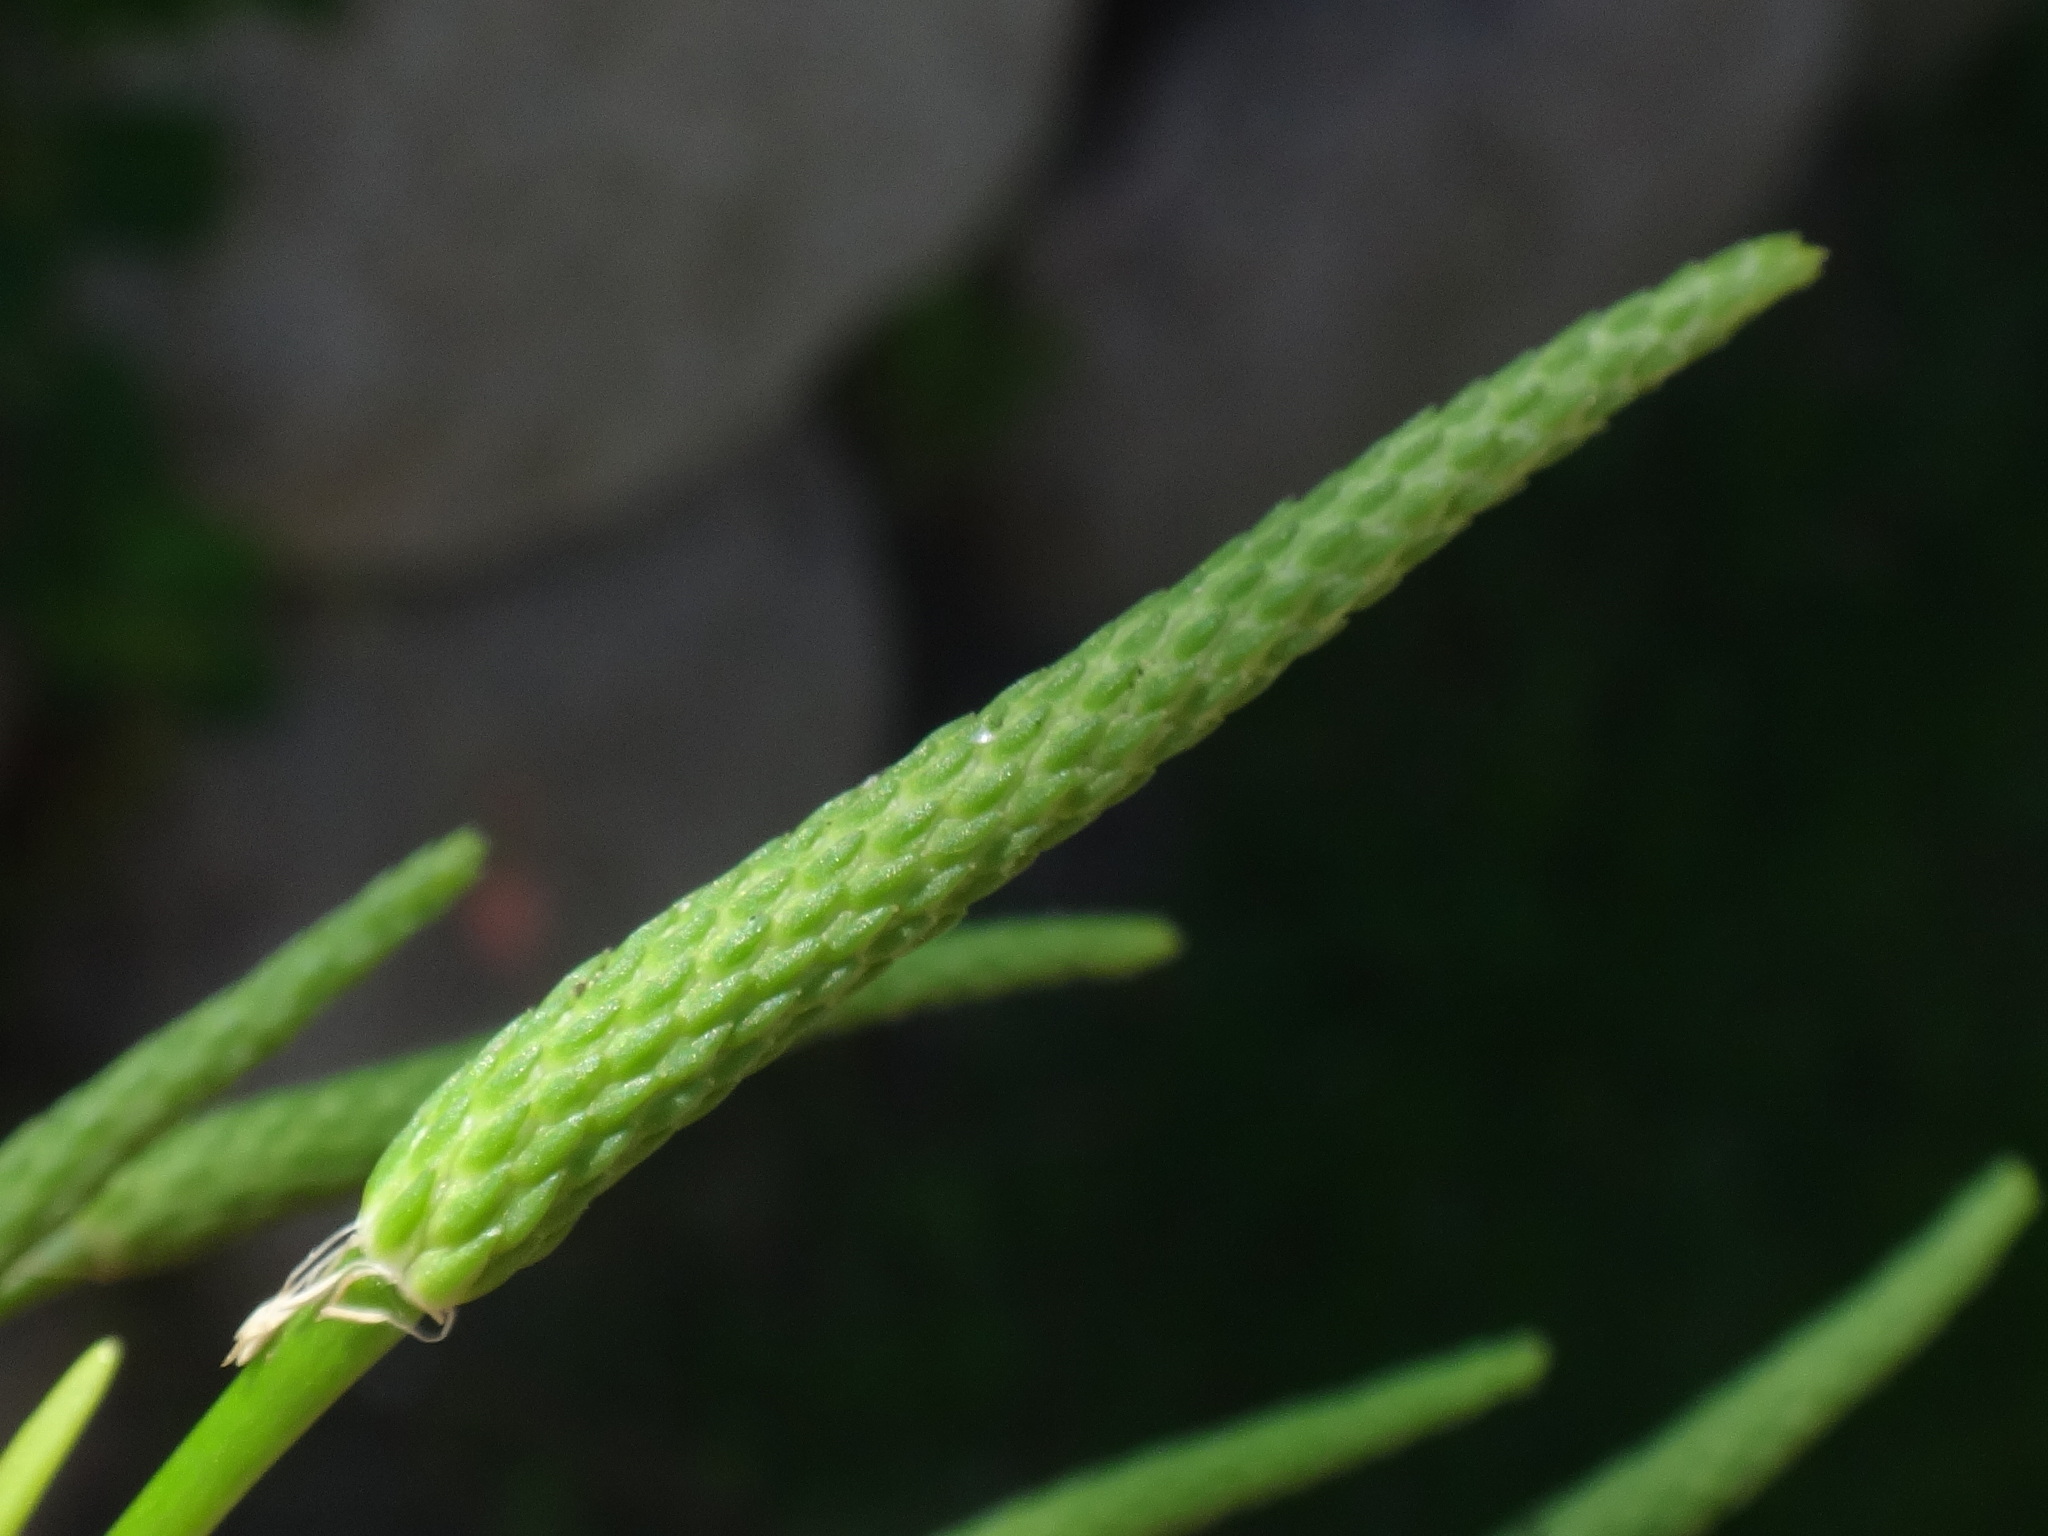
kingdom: Plantae
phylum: Tracheophyta
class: Magnoliopsida
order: Ranunculales
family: Ranunculaceae
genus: Myosurus
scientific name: Myosurus minimus
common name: Mousetail
